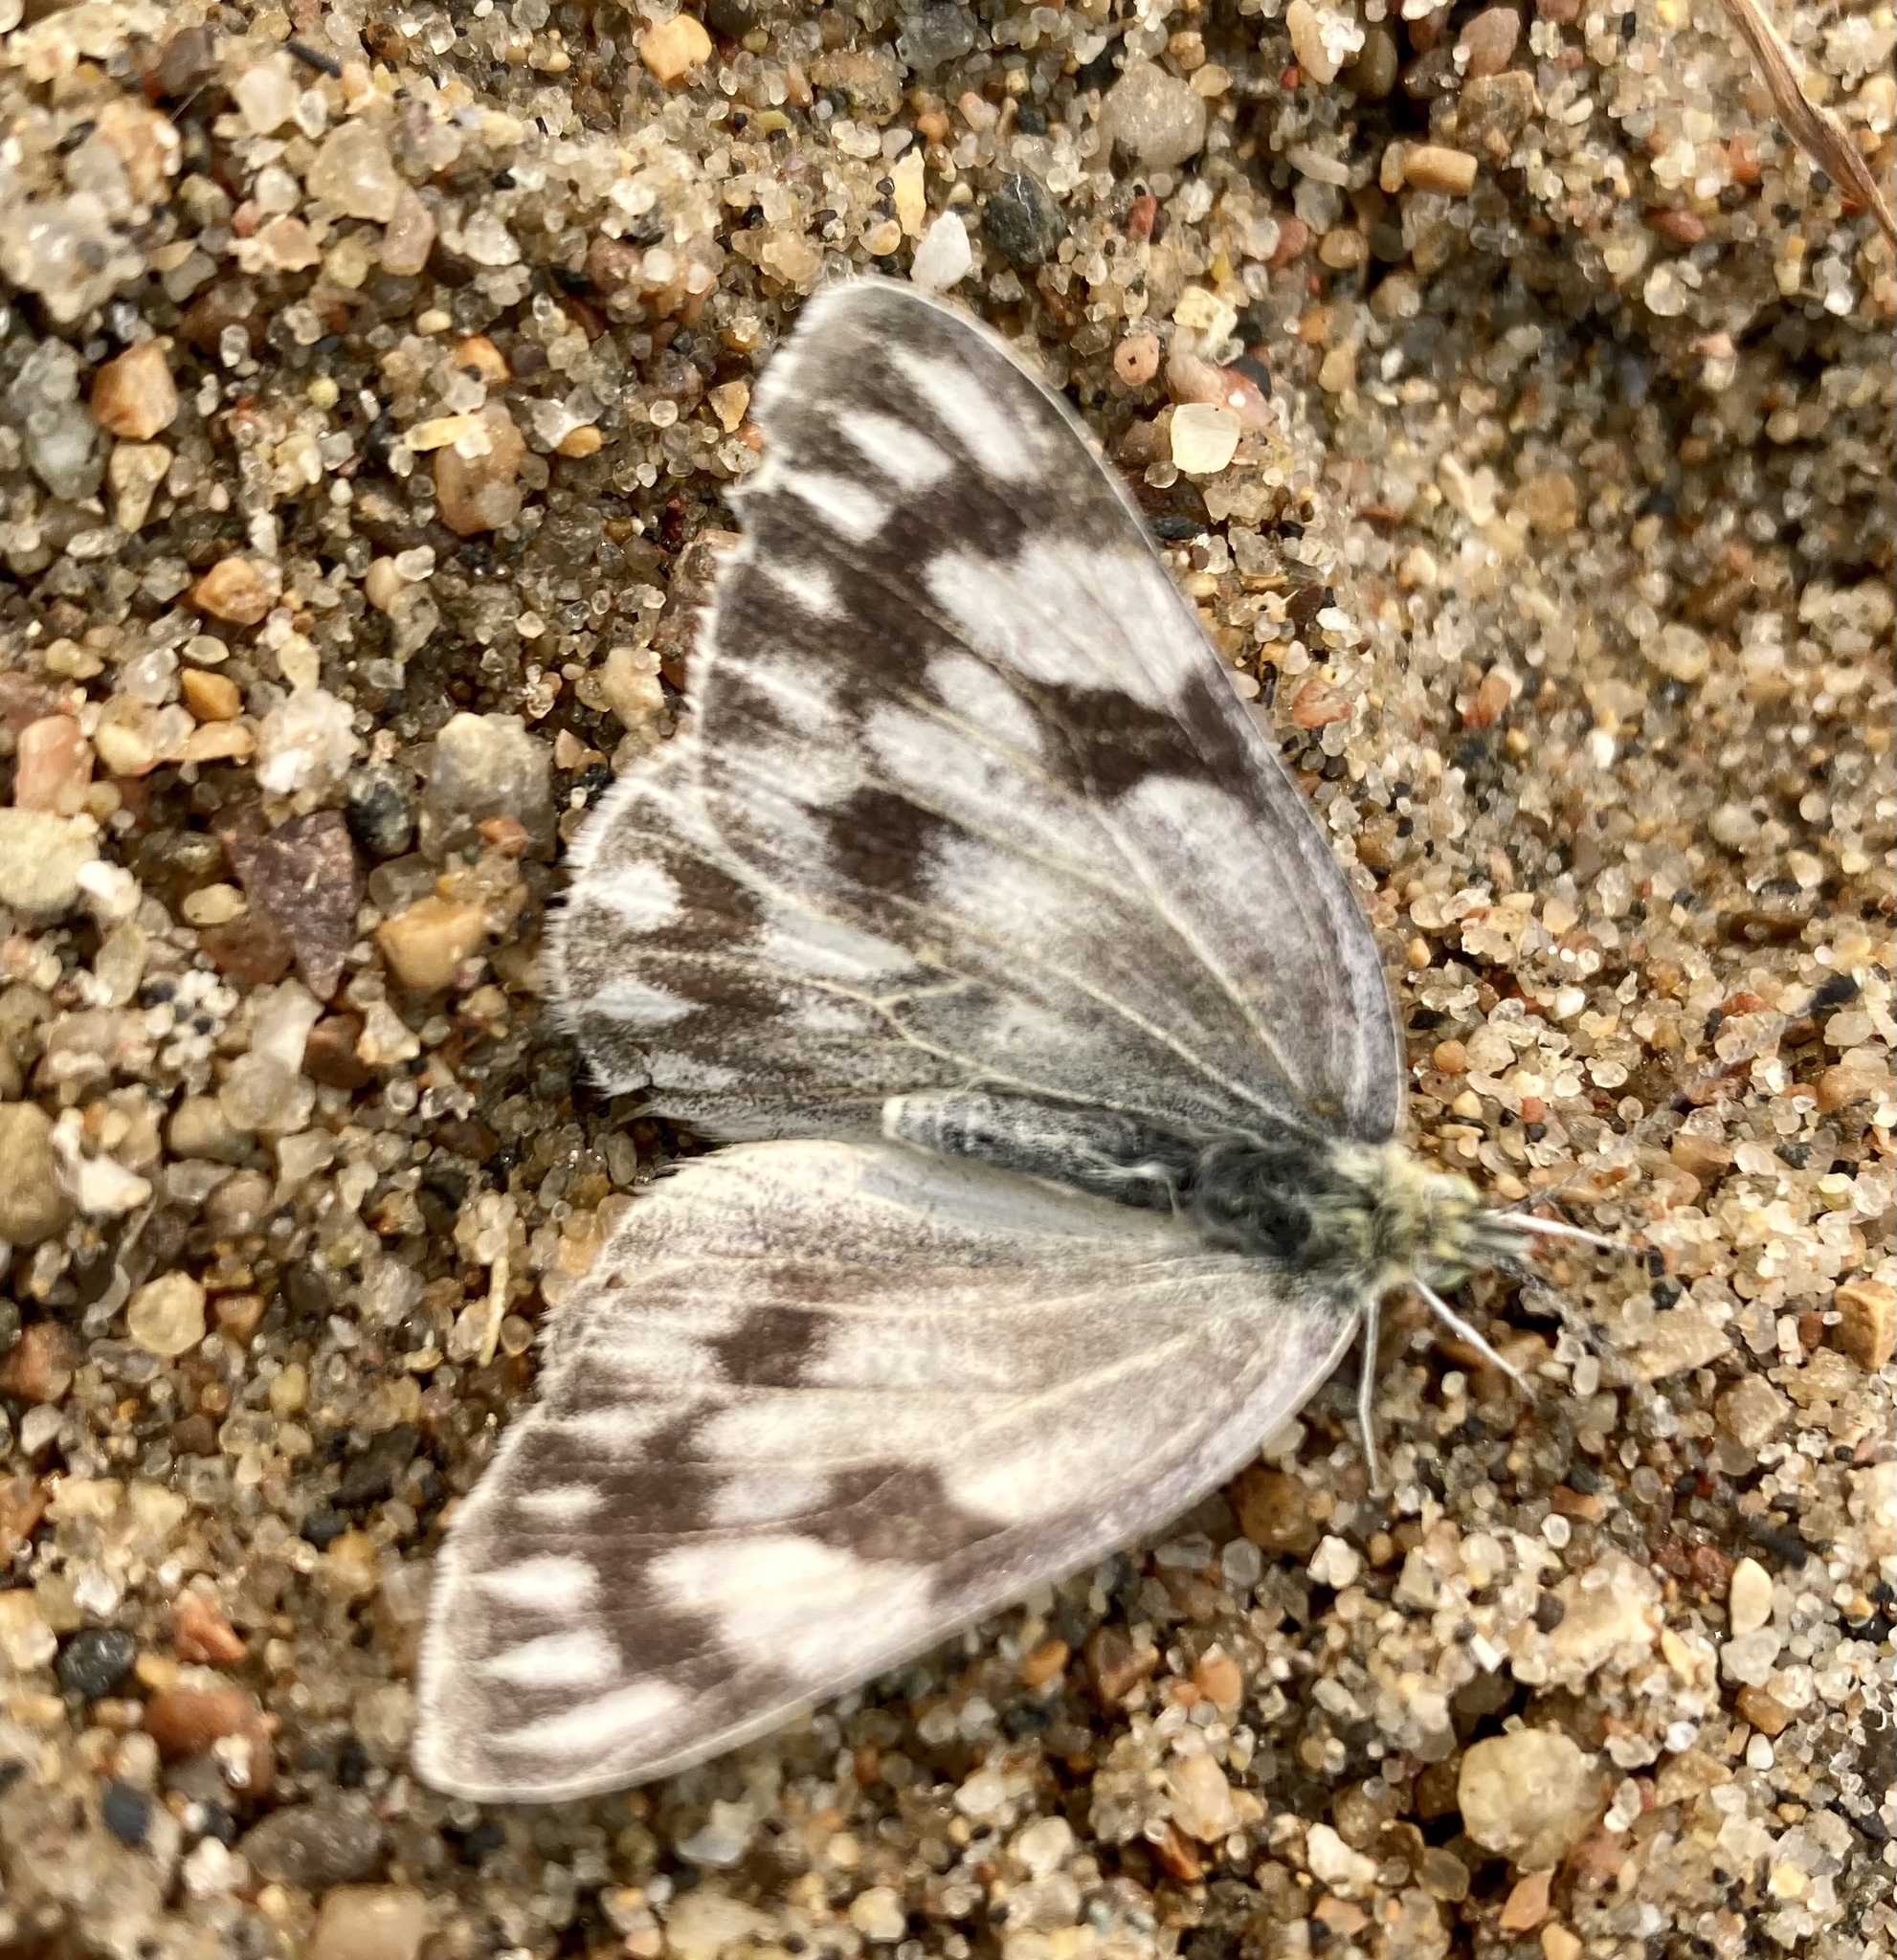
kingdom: Animalia
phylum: Arthropoda
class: Insecta
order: Lepidoptera
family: Pieridae
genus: Pontia
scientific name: Pontia occidentalis
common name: Western white
